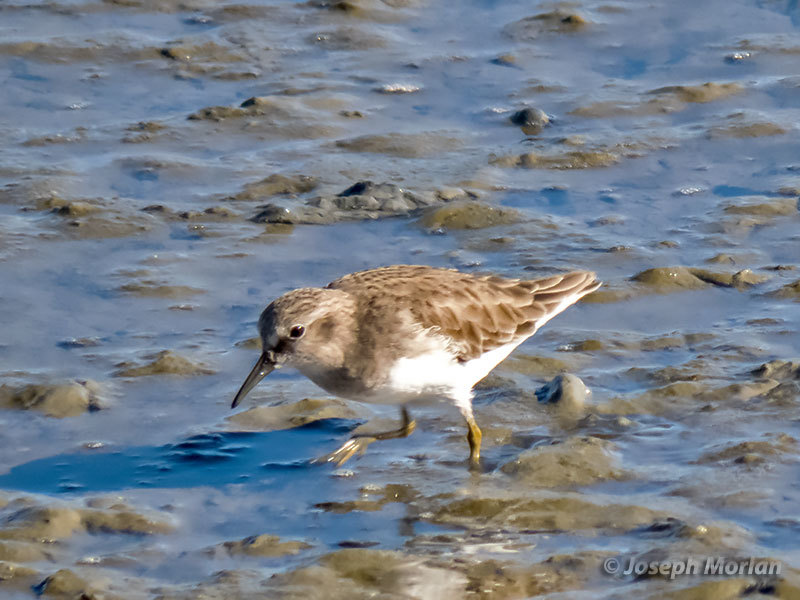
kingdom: Animalia
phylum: Chordata
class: Aves
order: Charadriiformes
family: Scolopacidae
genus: Calidris
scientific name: Calidris minutilla
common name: Least sandpiper
